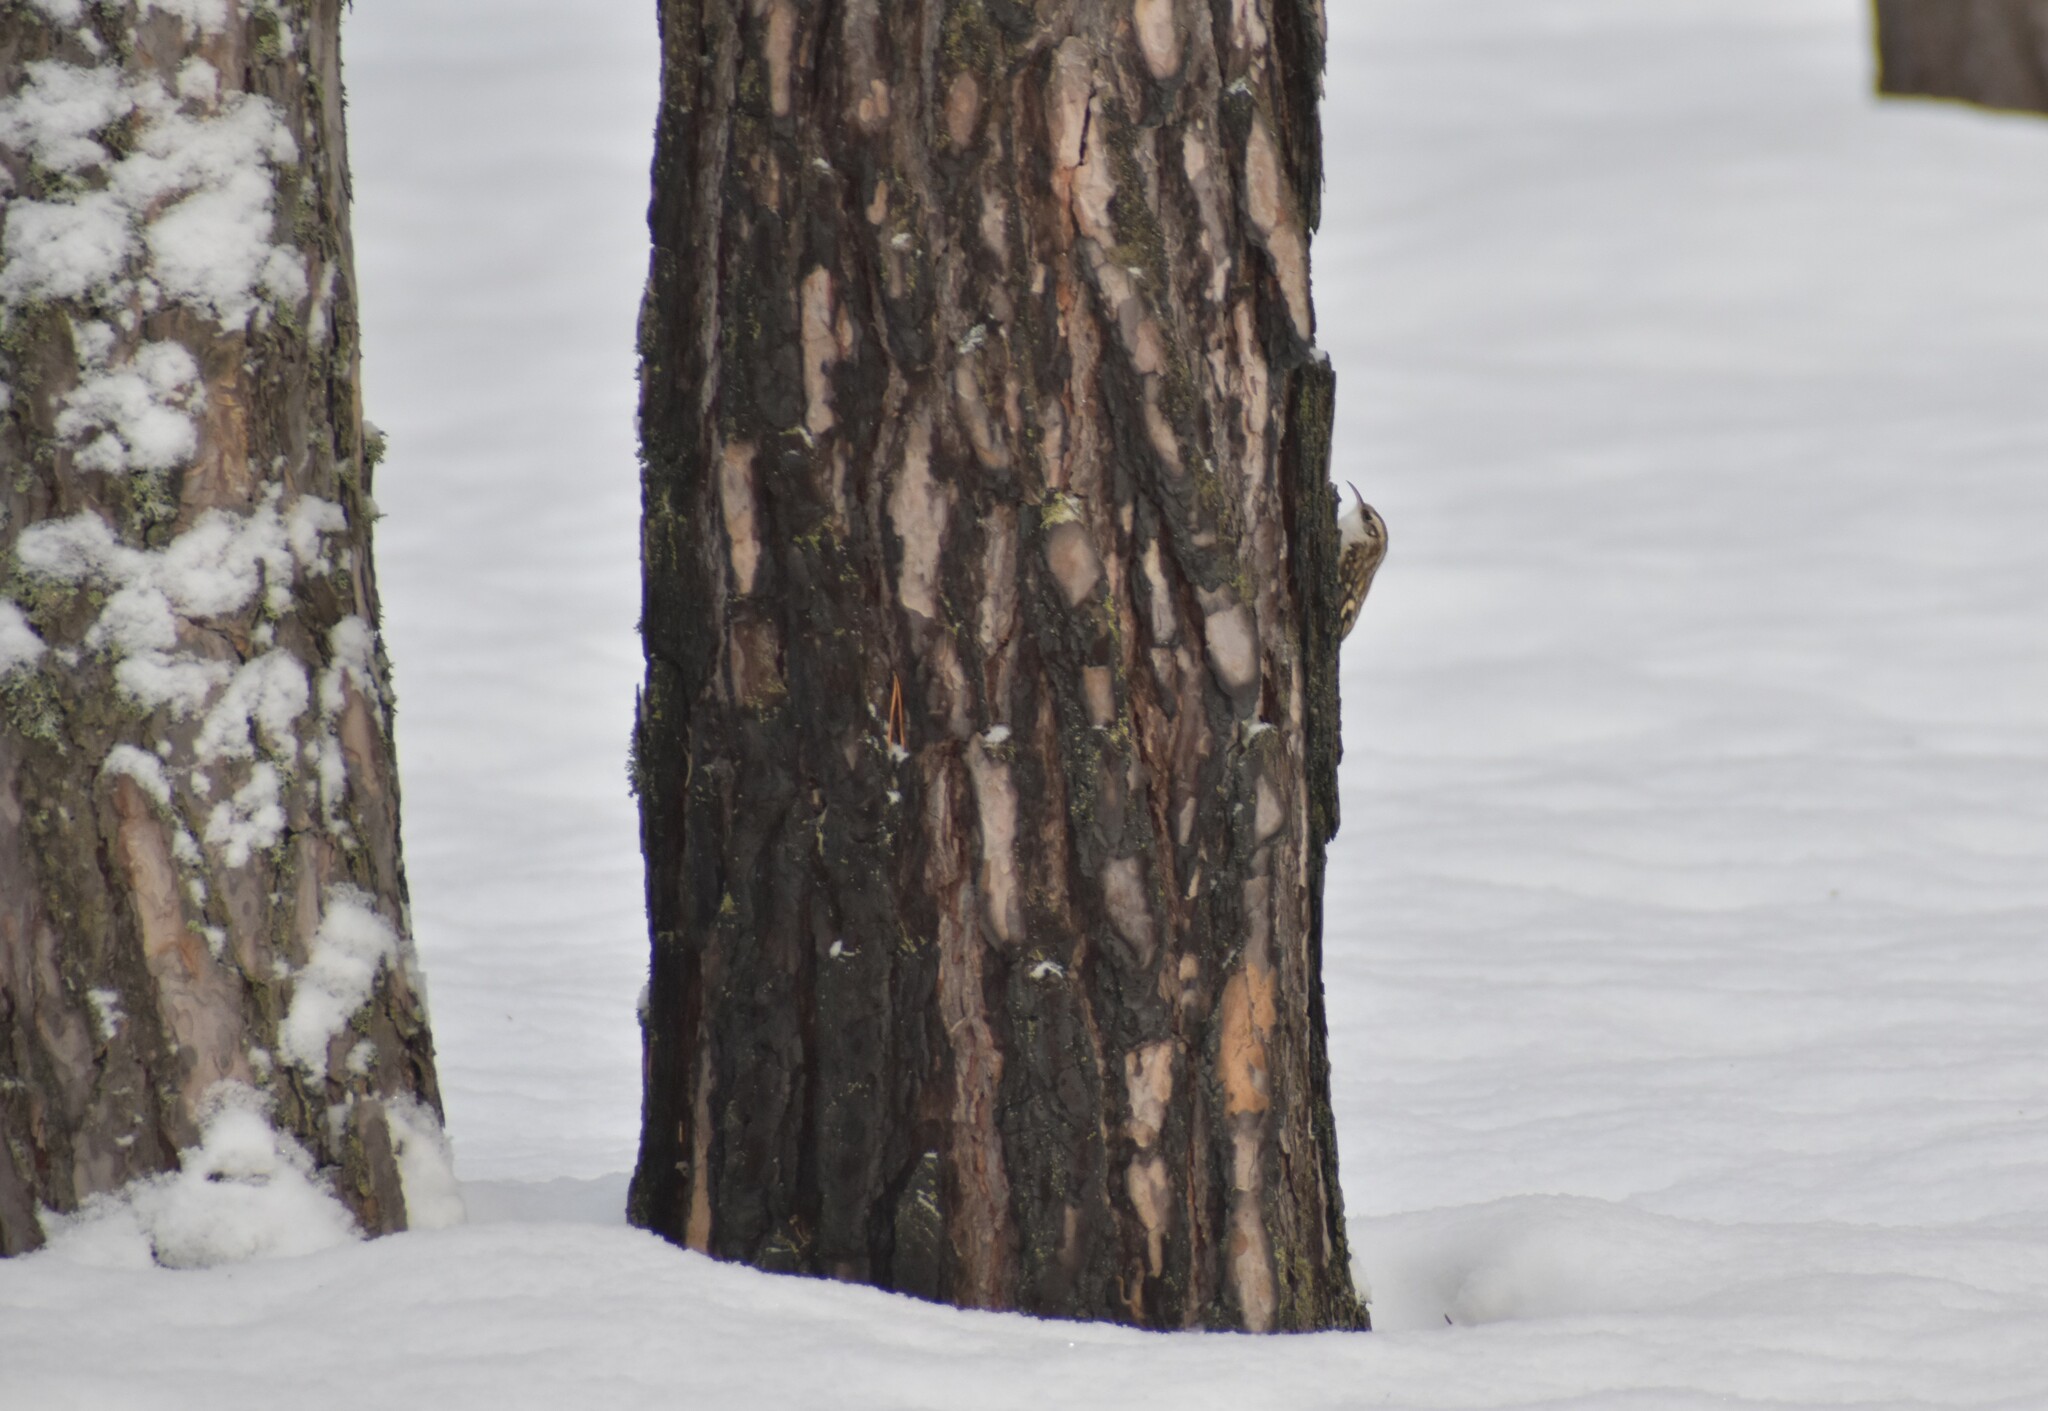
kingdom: Animalia
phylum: Chordata
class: Aves
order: Passeriformes
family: Certhiidae
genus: Certhia
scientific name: Certhia familiaris
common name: Eurasian treecreeper
